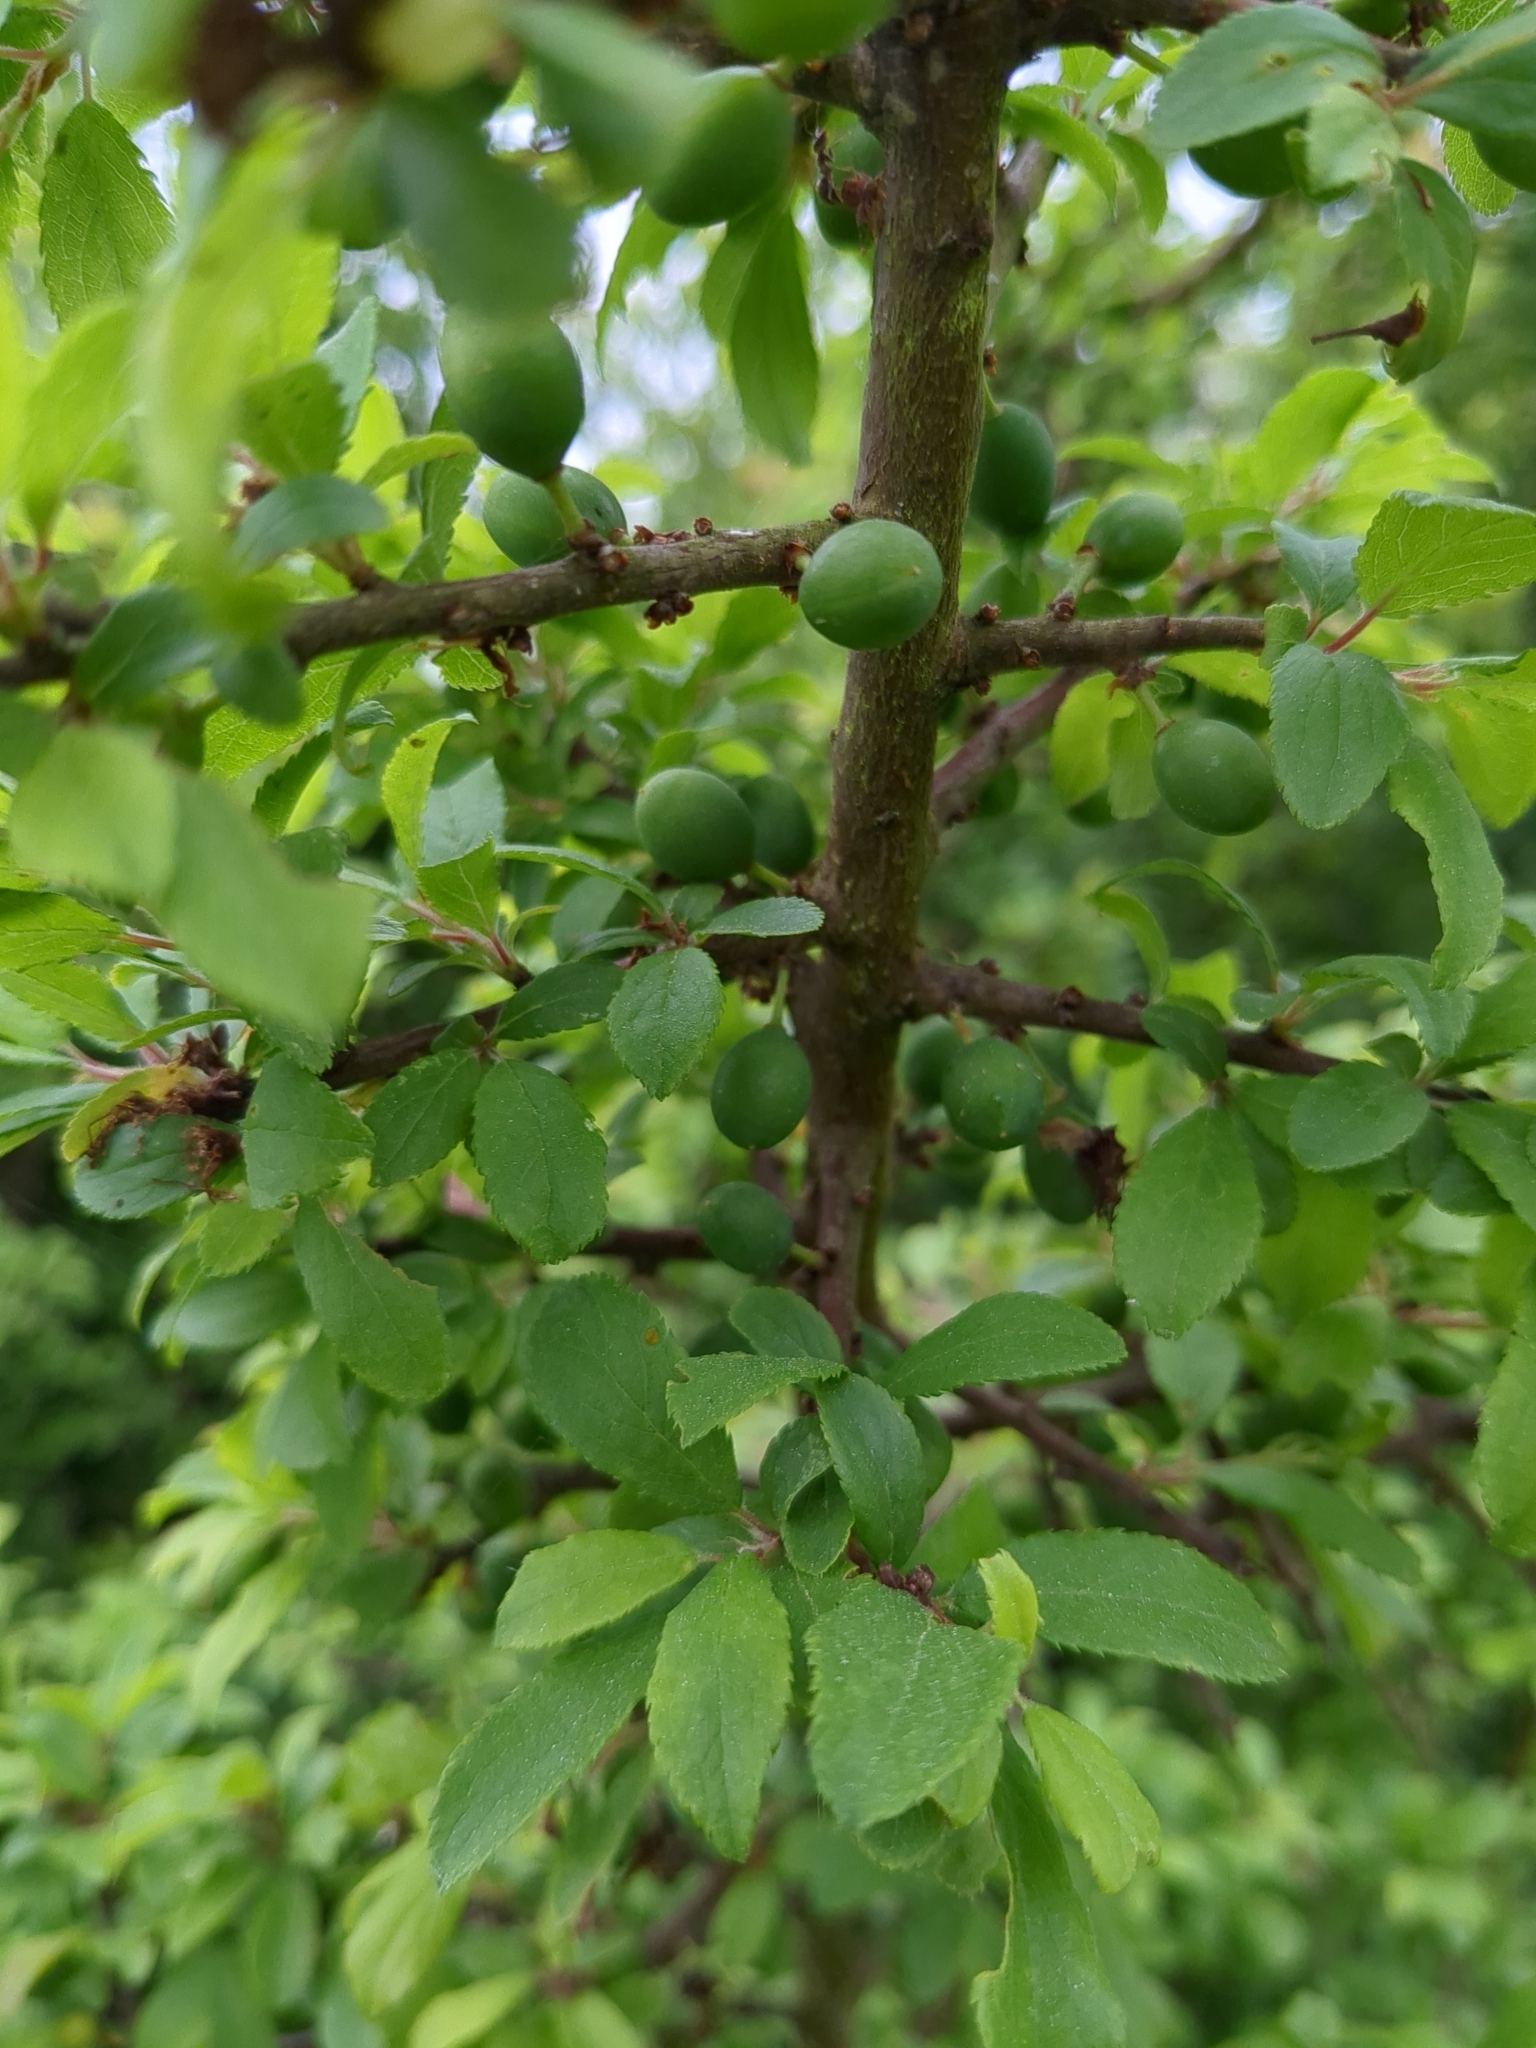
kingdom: Plantae
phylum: Tracheophyta
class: Magnoliopsida
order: Rosales
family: Rosaceae
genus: Prunus
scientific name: Prunus spinosa
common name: Blackthorn
